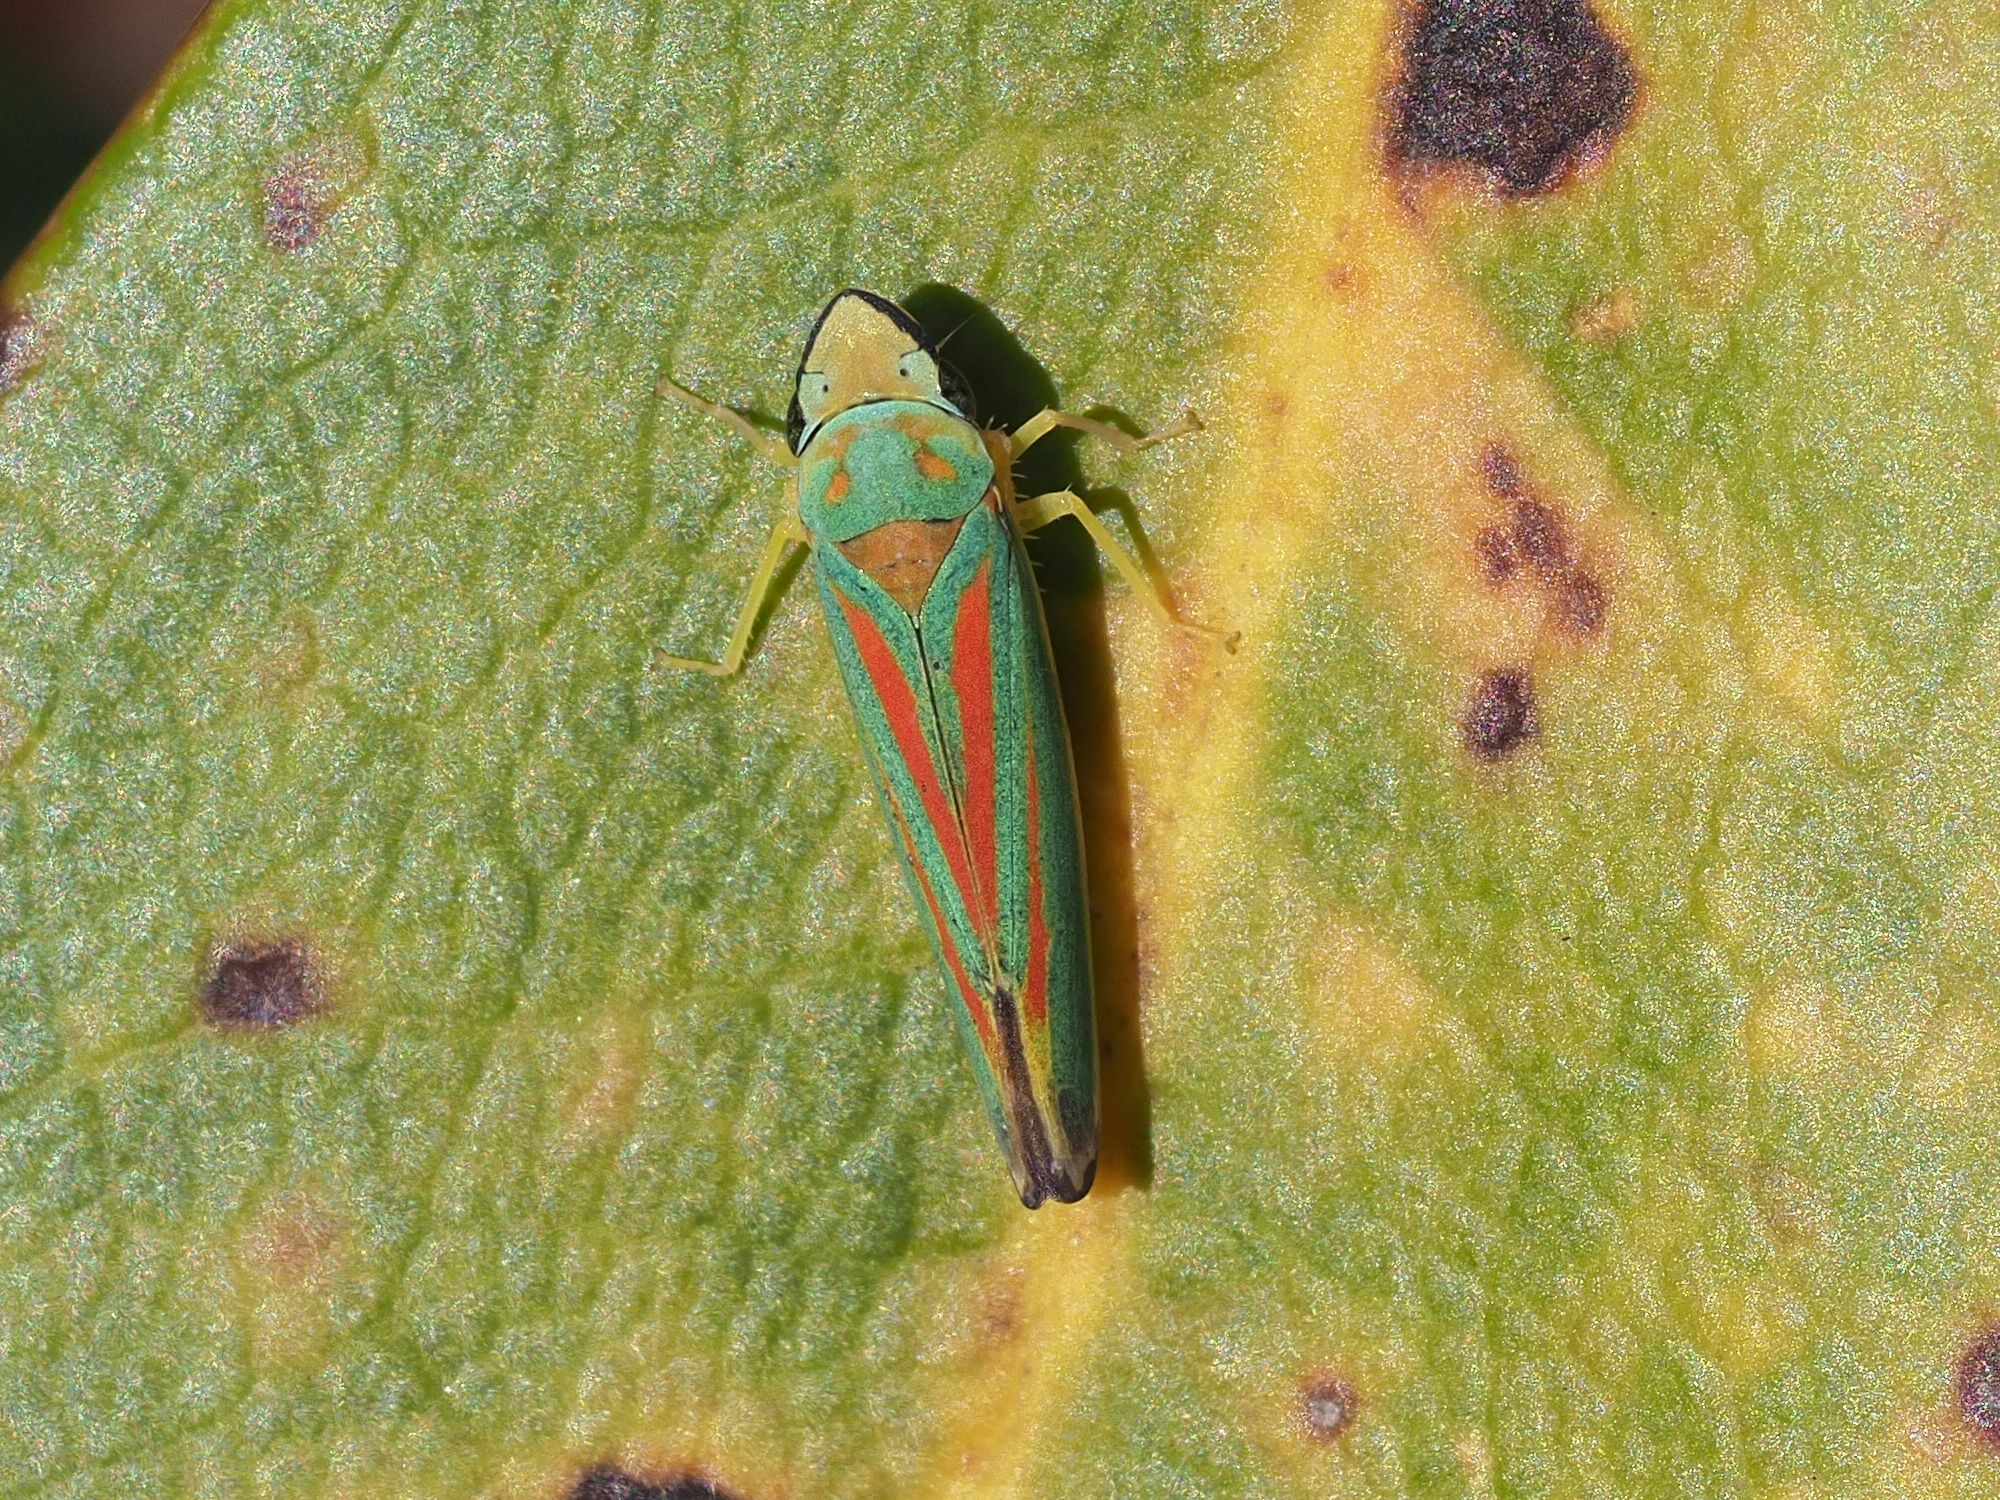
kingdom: Animalia
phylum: Arthropoda
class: Insecta
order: Hemiptera
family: Cicadellidae
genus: Graphocephala
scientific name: Graphocephala fennahi
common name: Rhododendron leafhopper
